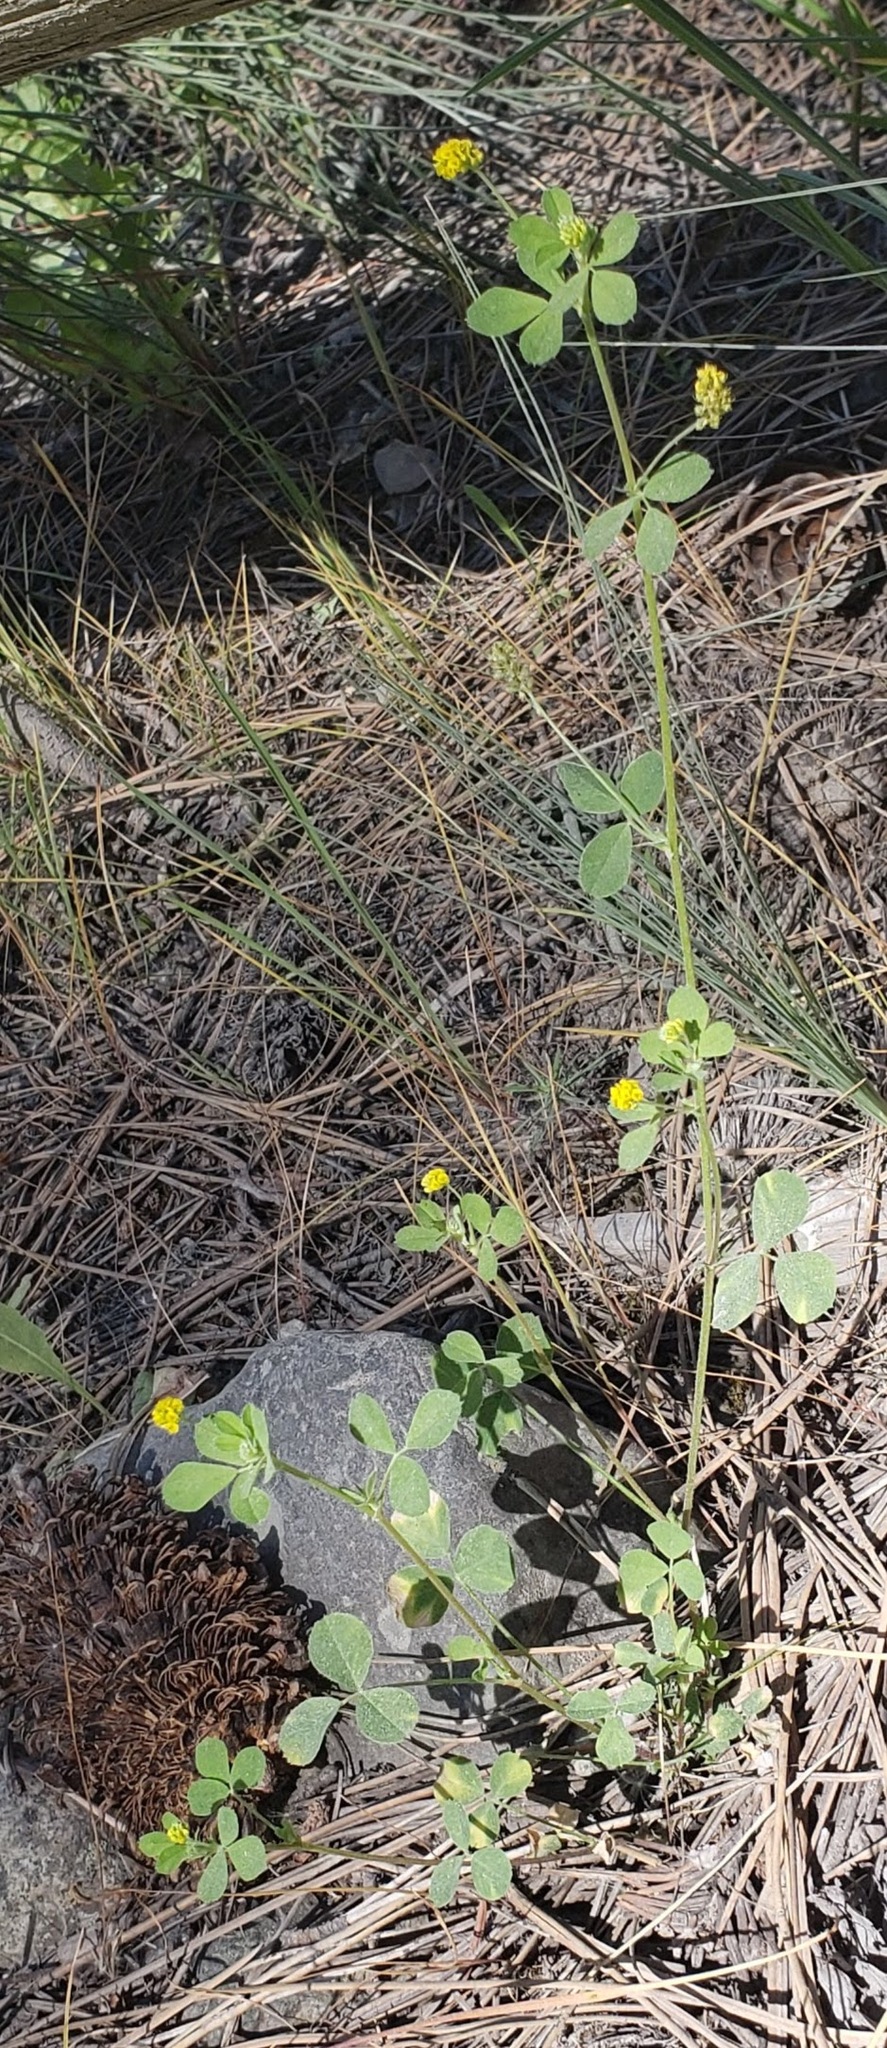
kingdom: Plantae
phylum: Tracheophyta
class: Magnoliopsida
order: Fabales
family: Fabaceae
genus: Medicago
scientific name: Medicago lupulina
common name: Black medick
